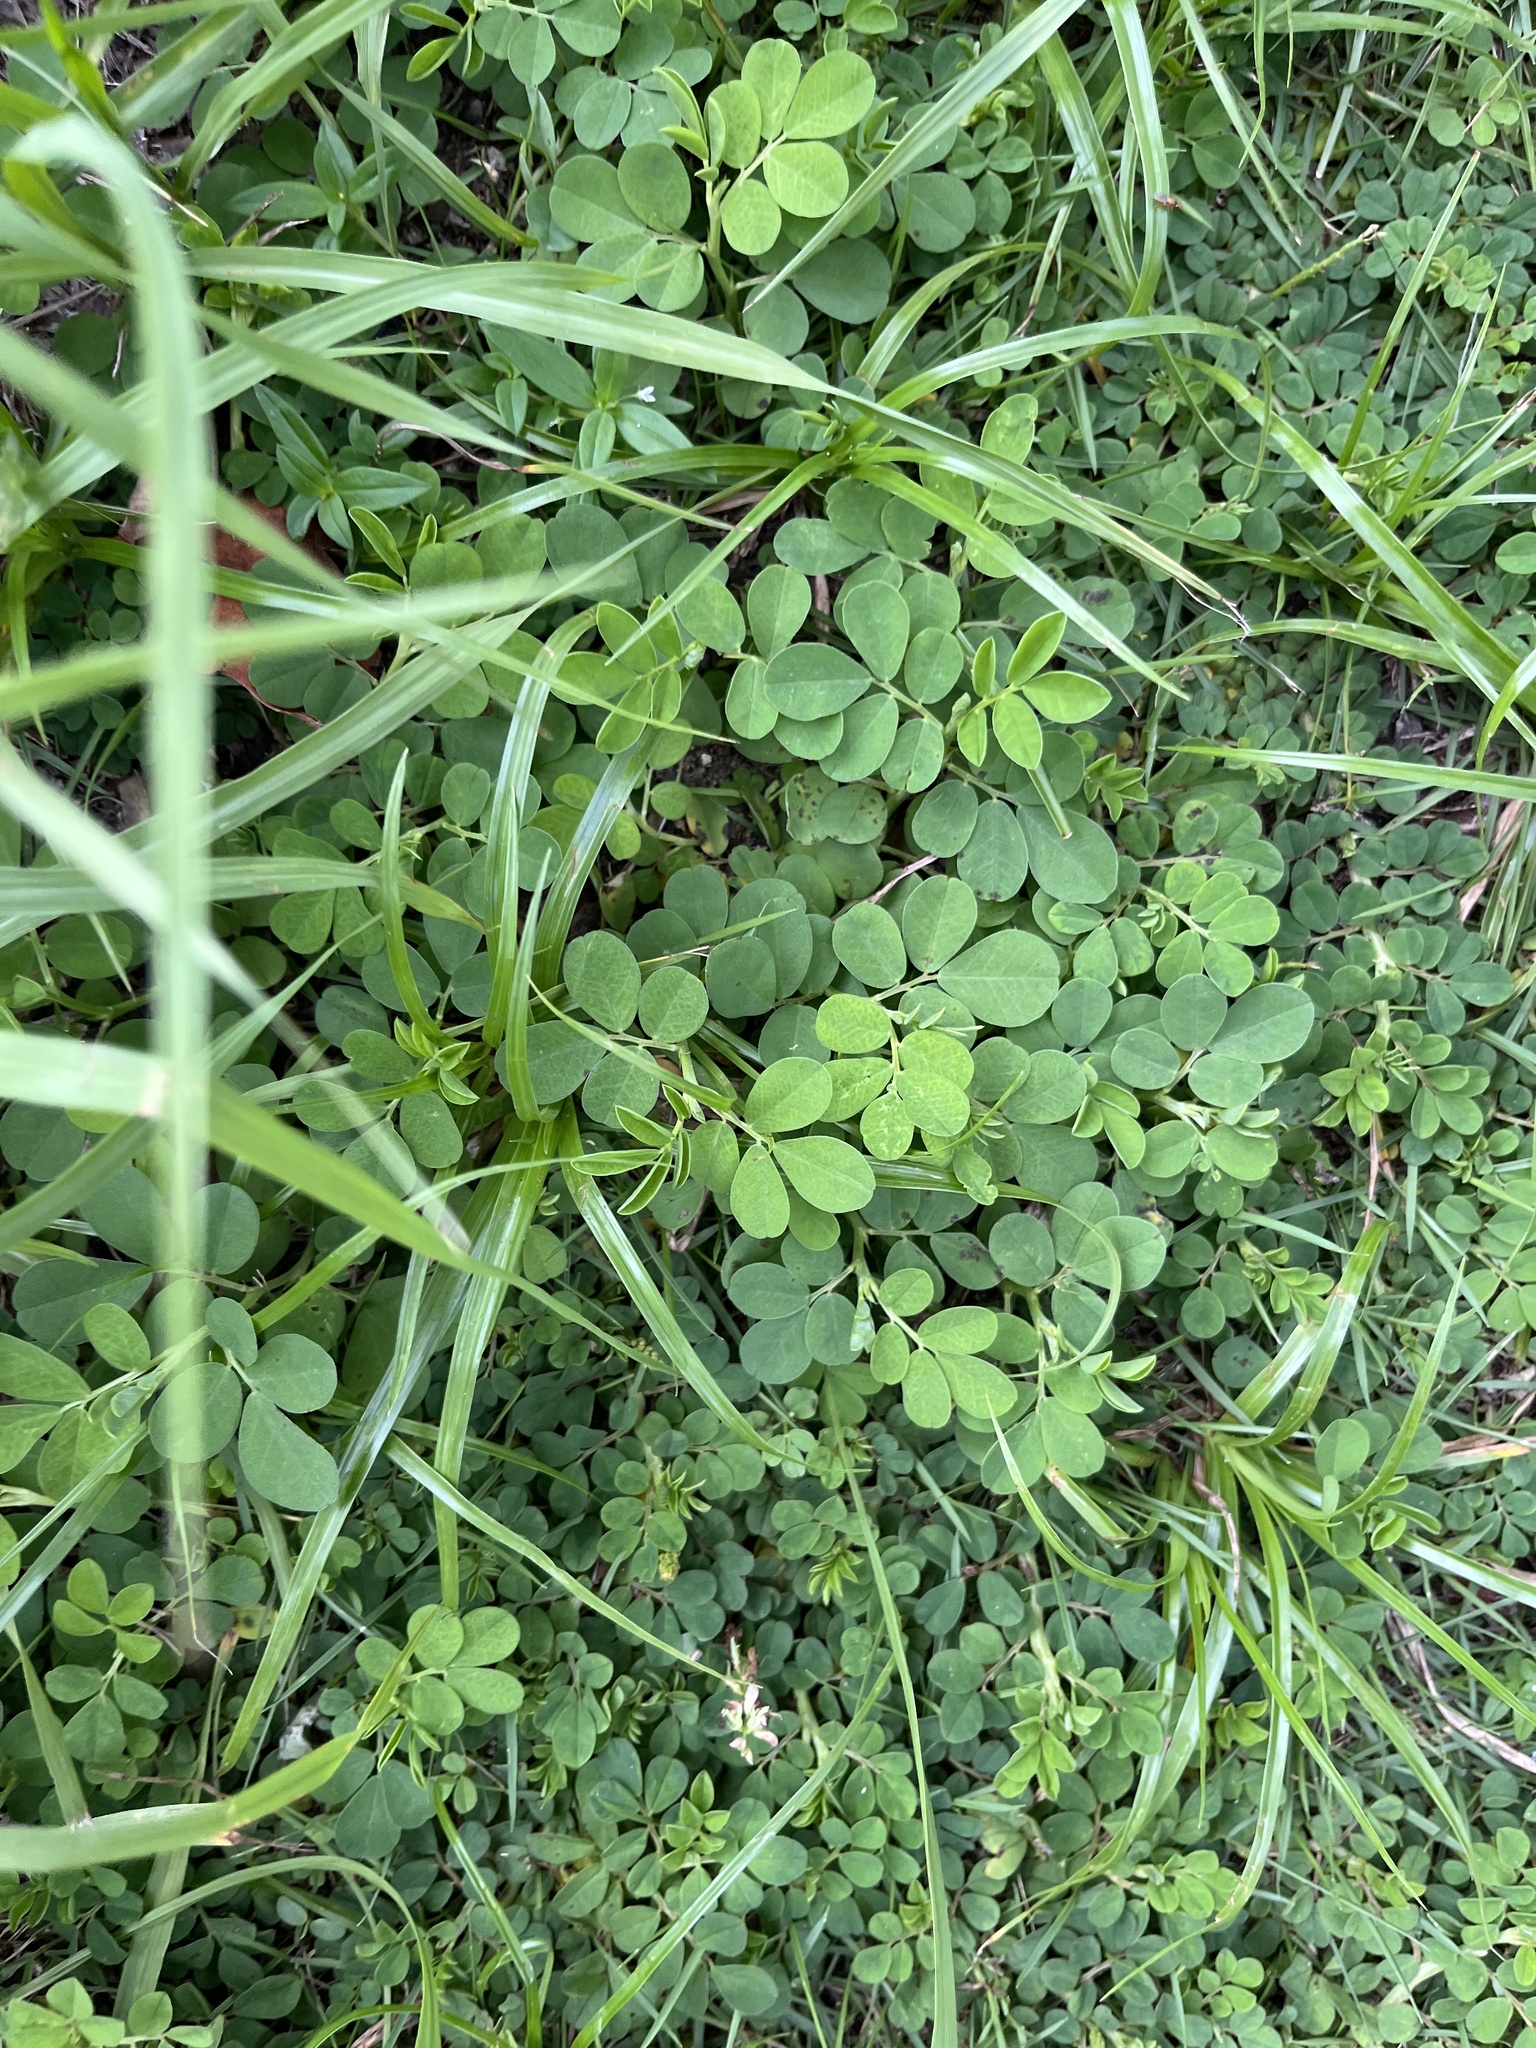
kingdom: Plantae
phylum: Tracheophyta
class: Magnoliopsida
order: Fabales
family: Fabaceae
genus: Indigofera
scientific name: Indigofera spicata
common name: Creeping indigo
